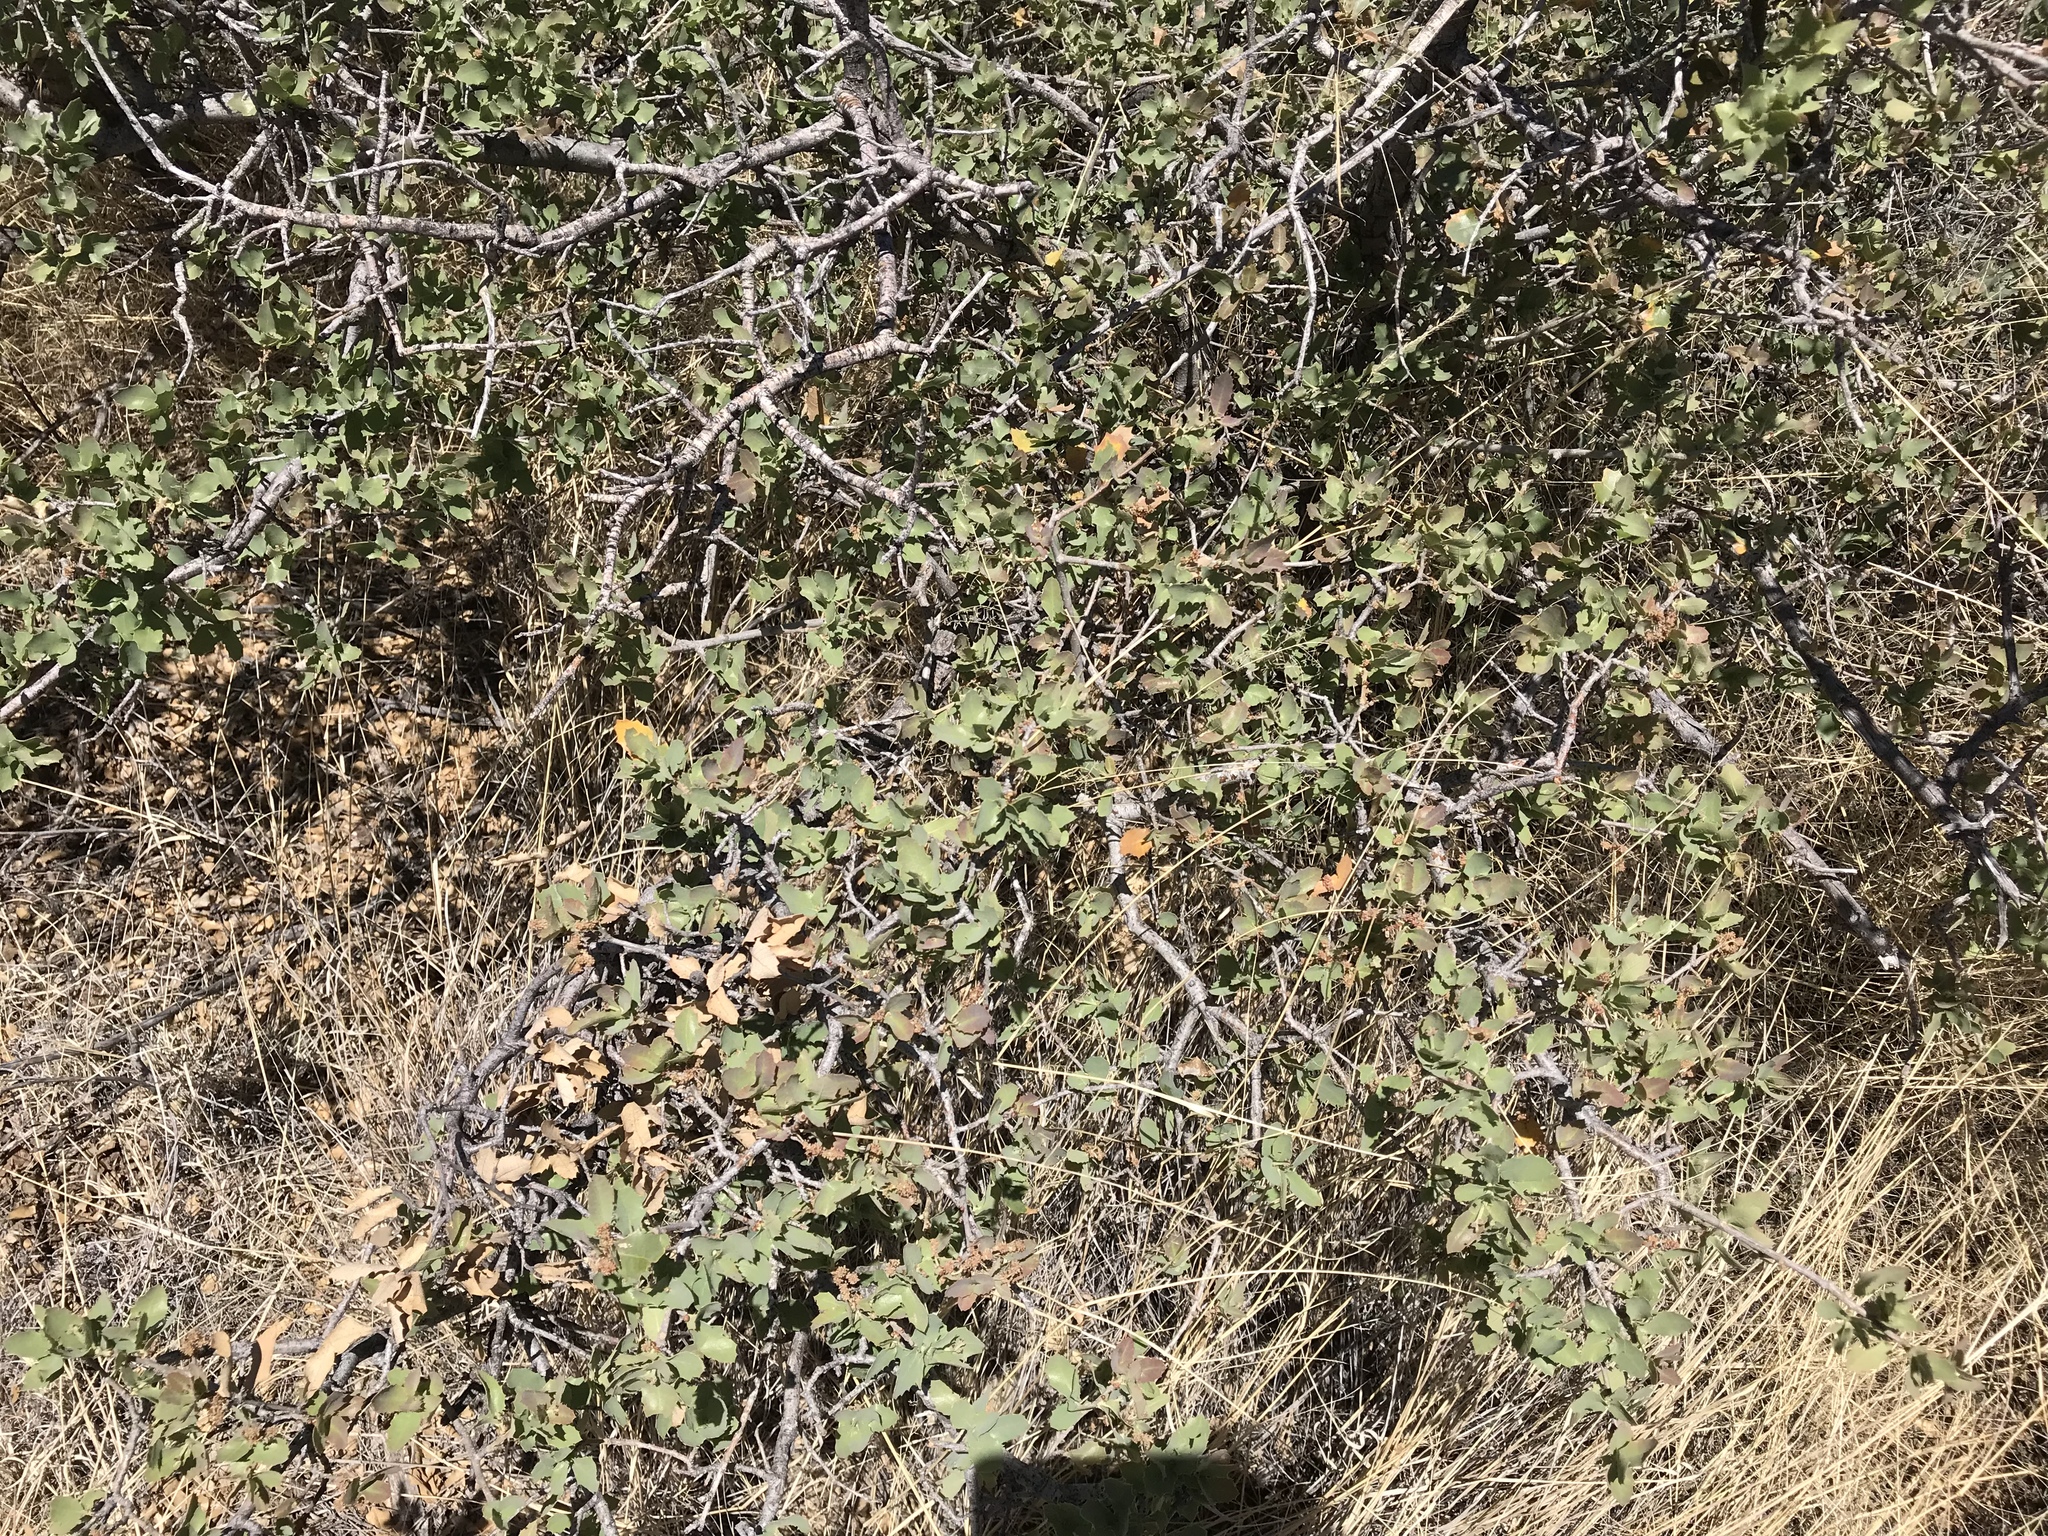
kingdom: Plantae
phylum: Tracheophyta
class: Magnoliopsida
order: Fagales
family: Fagaceae
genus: Quercus
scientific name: Quercus turbinella
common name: Sonoran scrub oak
